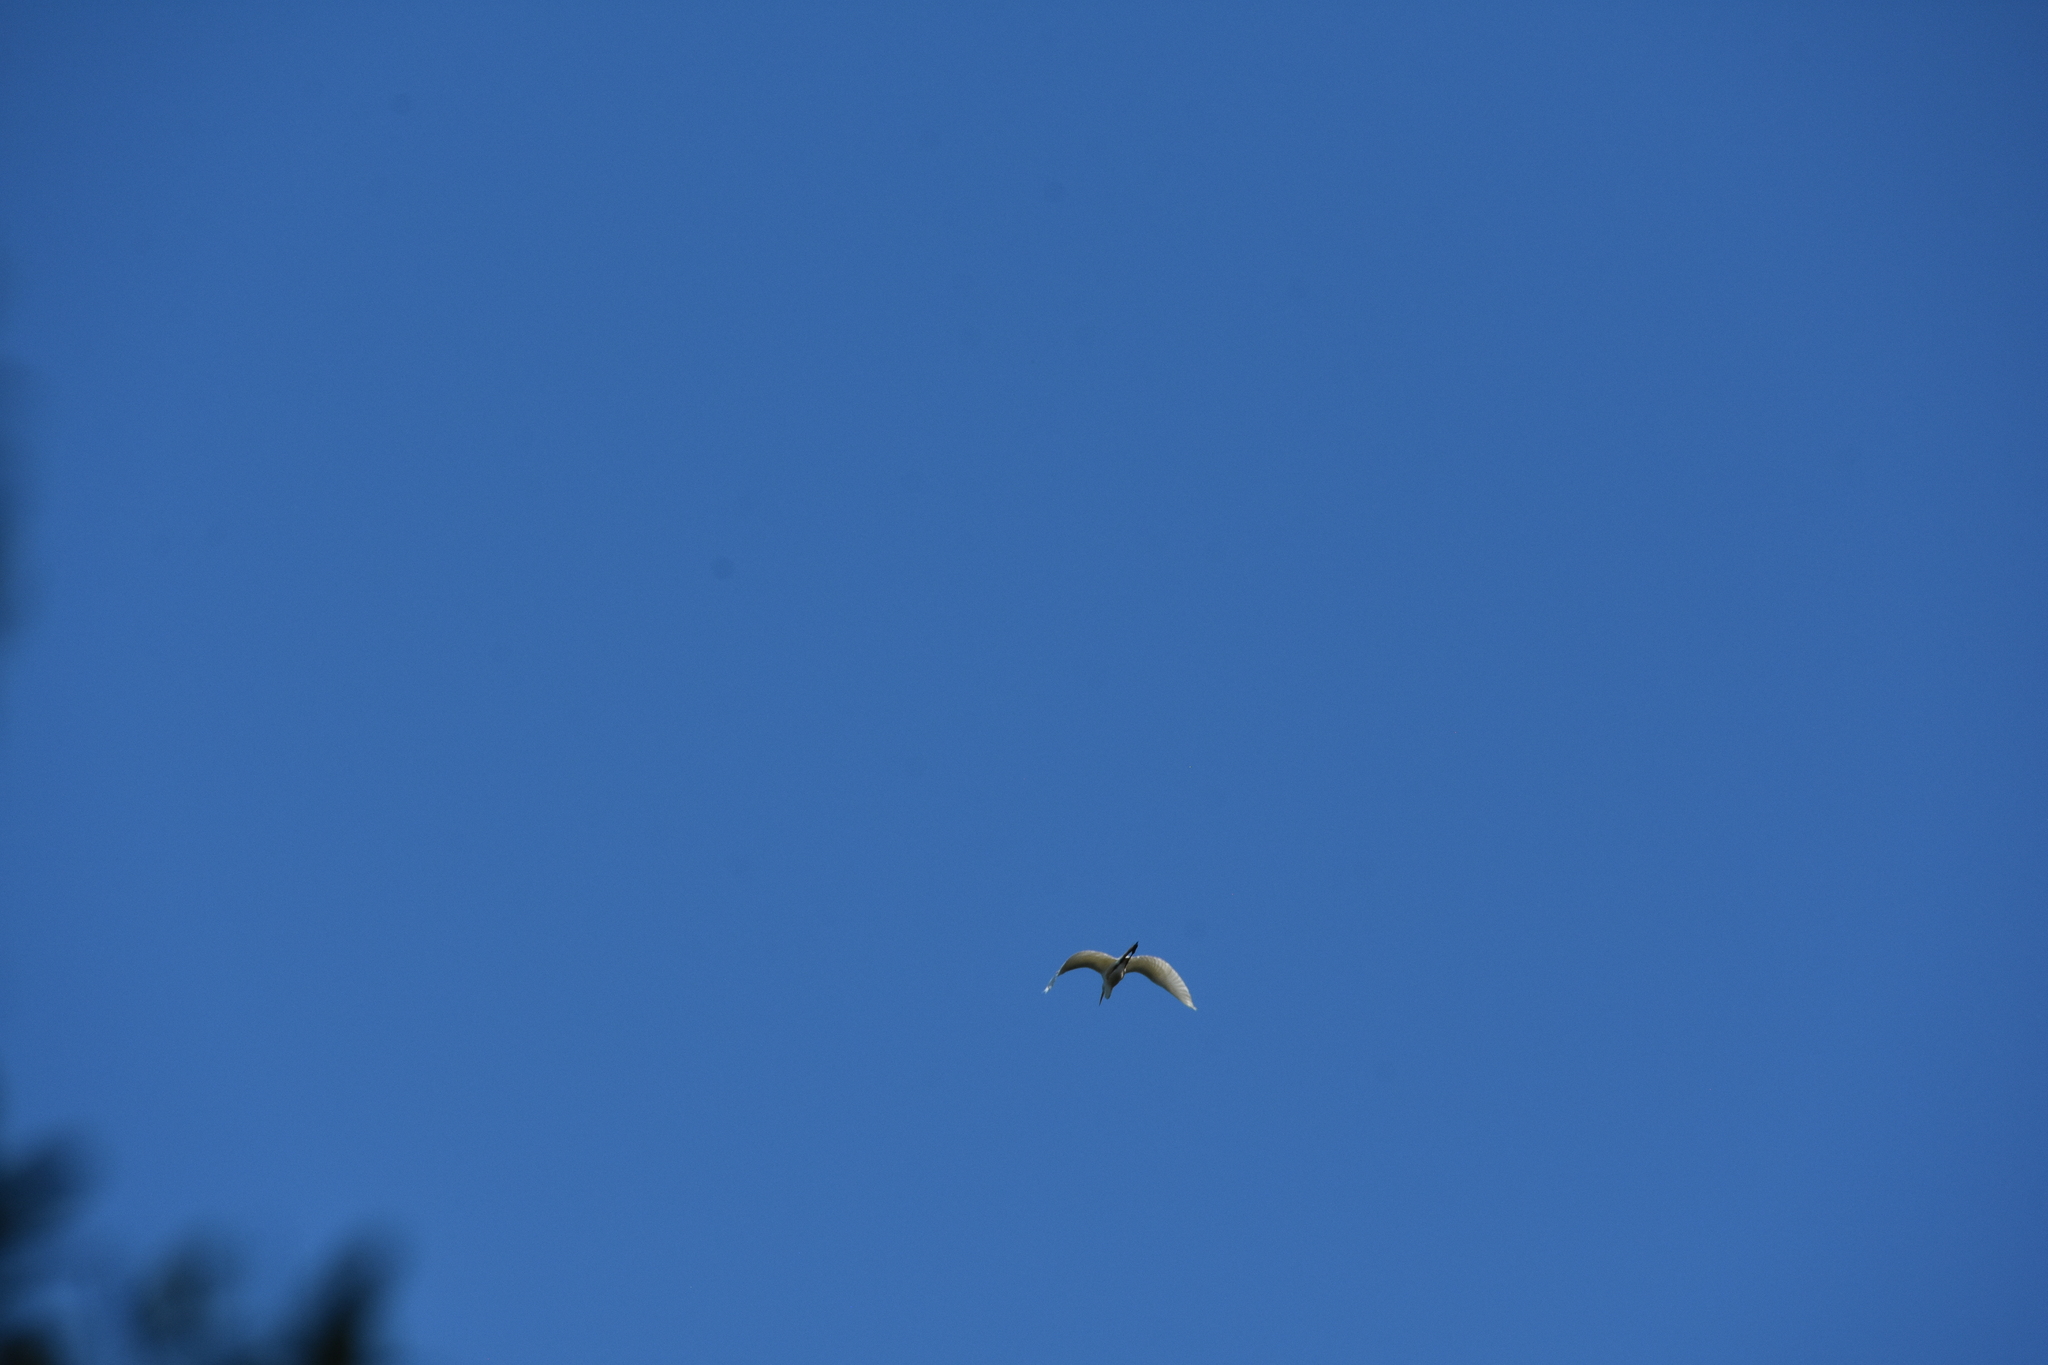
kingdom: Animalia
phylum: Chordata
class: Aves
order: Pelecaniformes
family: Ardeidae
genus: Ardea
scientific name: Ardea alba
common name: Great egret
